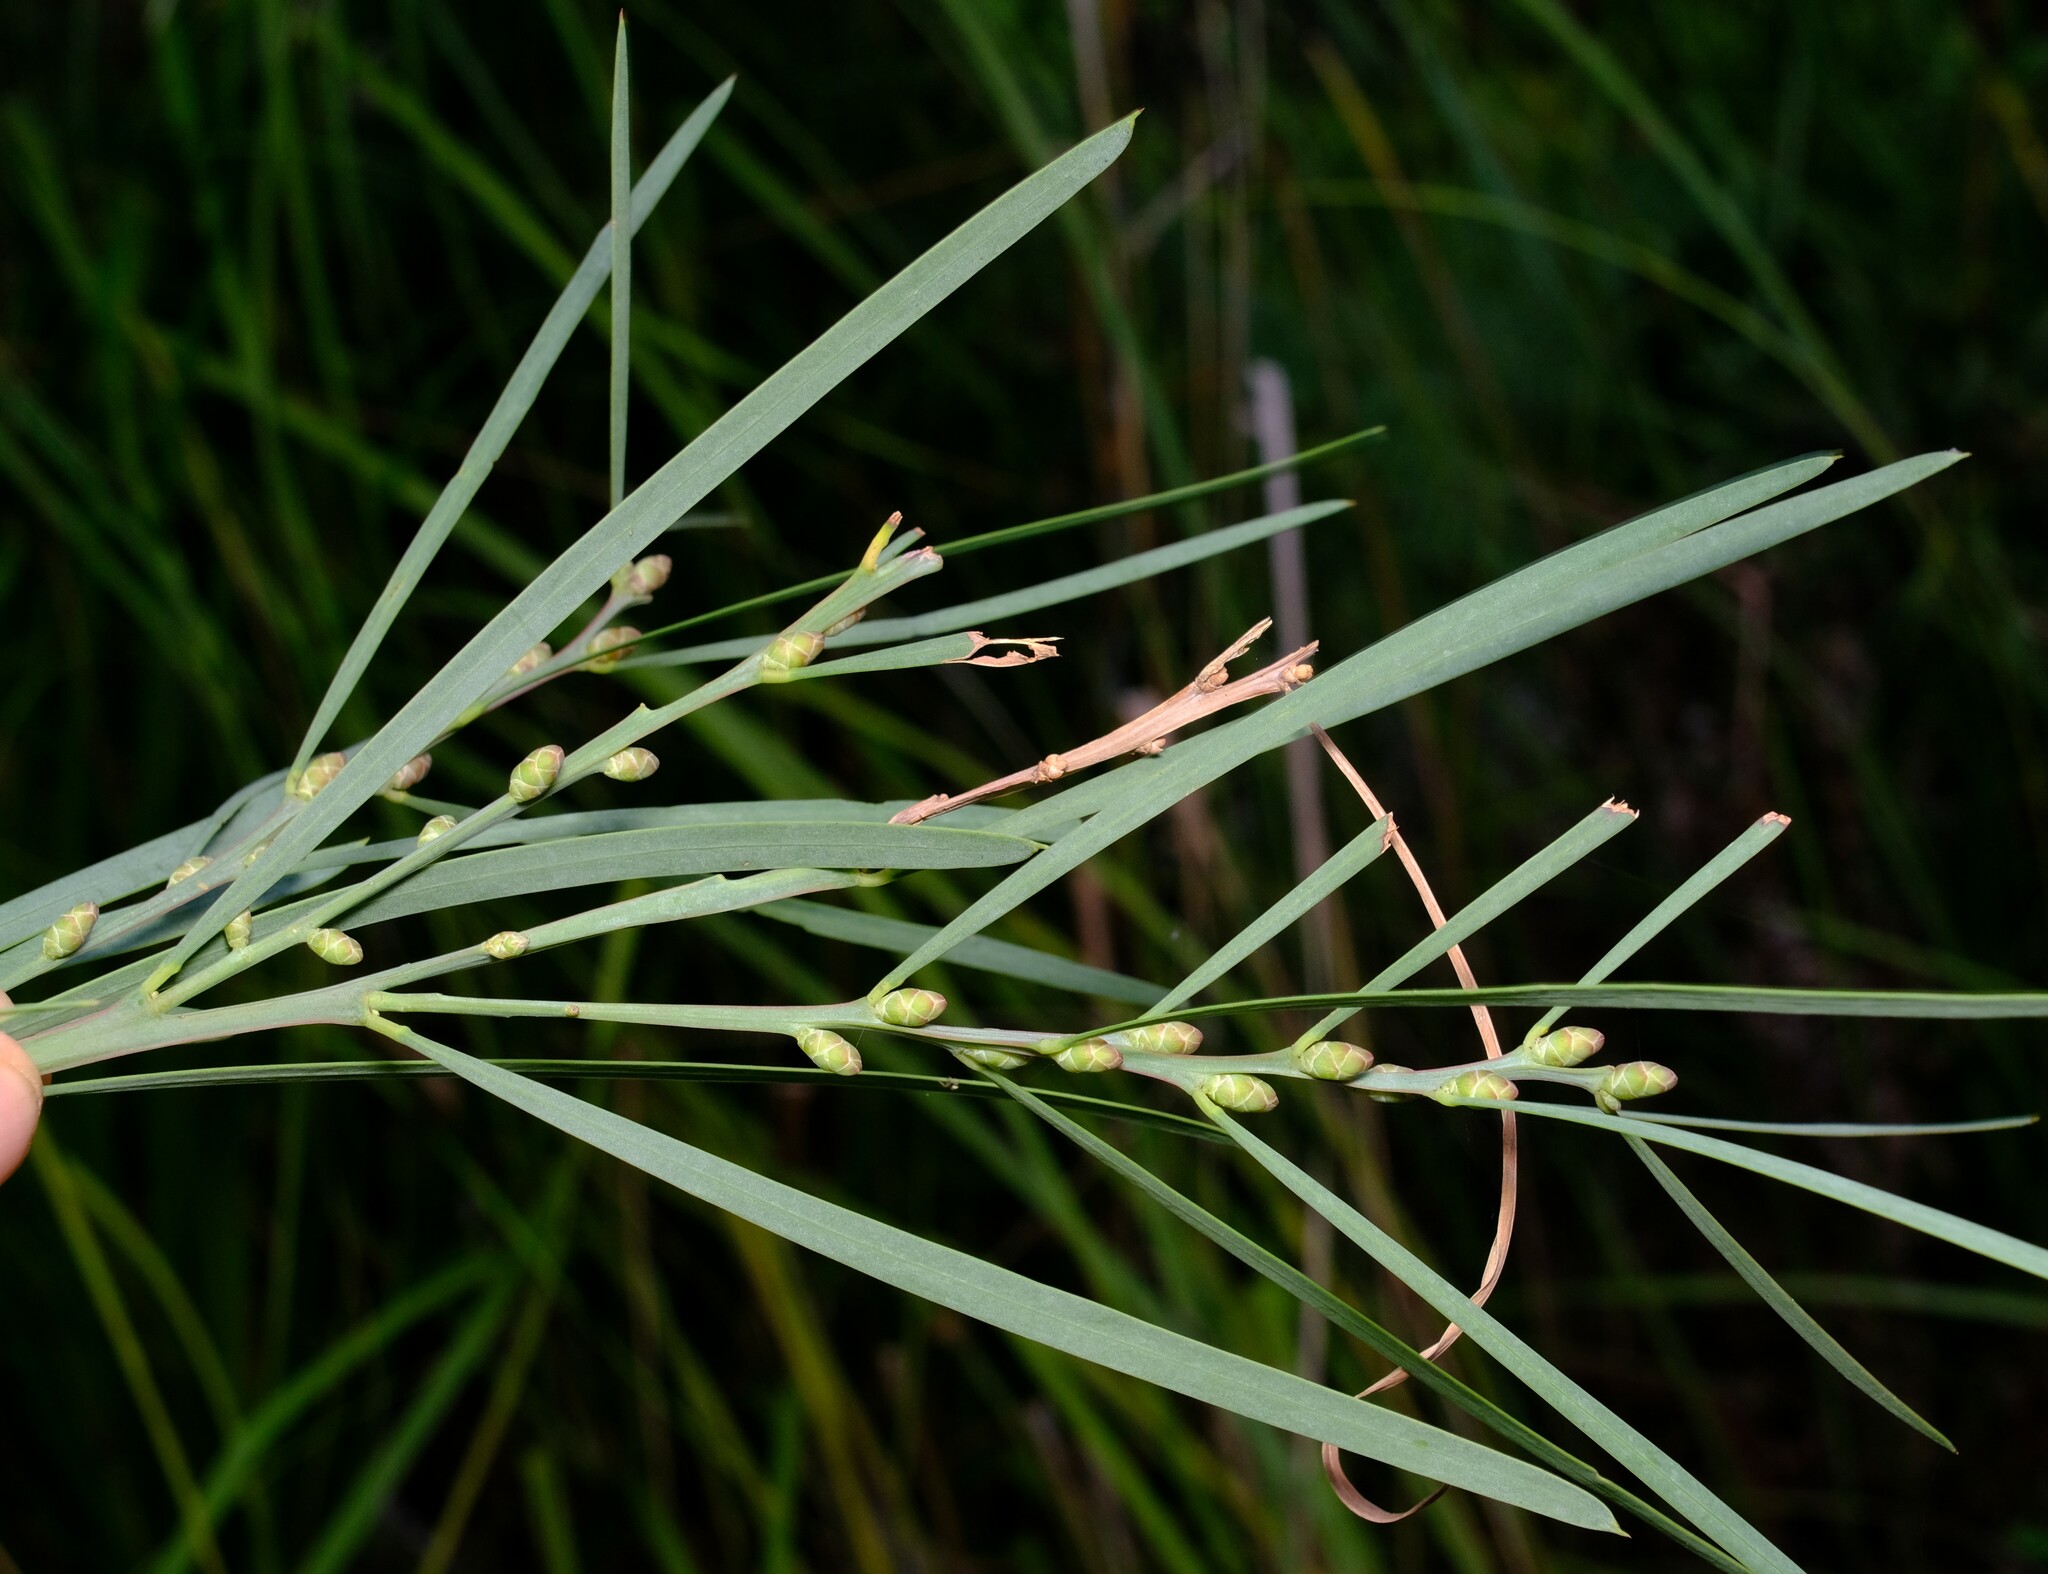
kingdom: Plantae
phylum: Tracheophyta
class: Magnoliopsida
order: Fabales
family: Fabaceae
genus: Acacia
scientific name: Acacia suaveolens
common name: Sweet acacia
